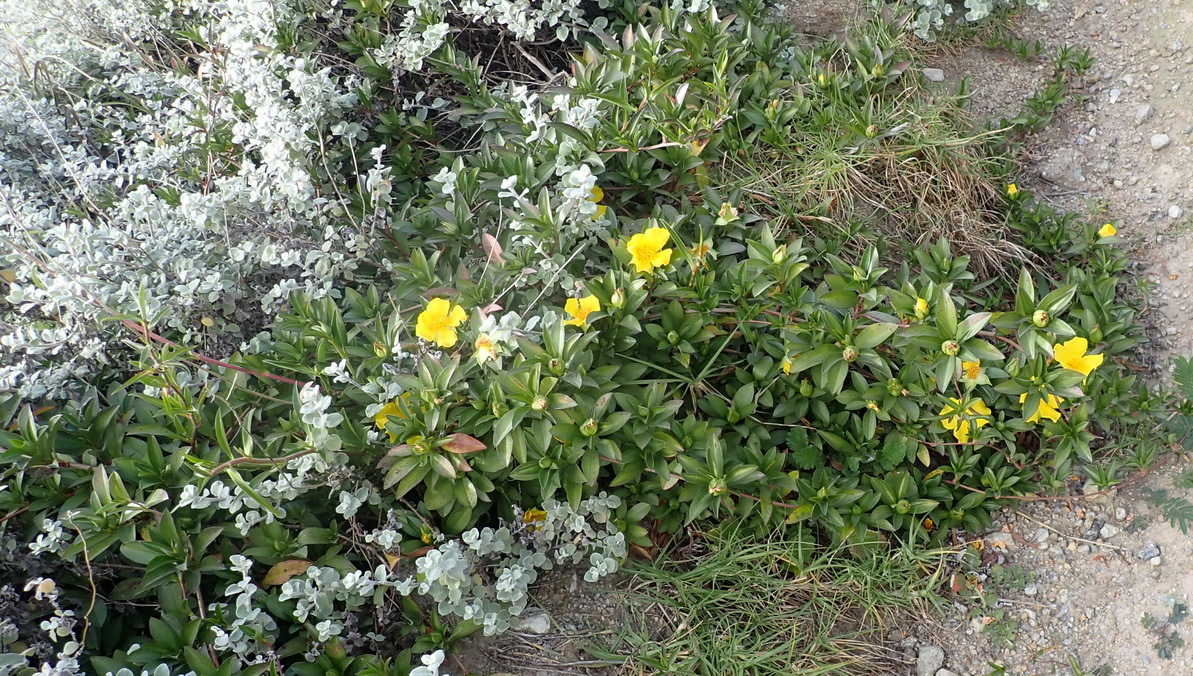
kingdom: Plantae
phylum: Tracheophyta
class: Magnoliopsida
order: Dilleniales
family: Dilleniaceae
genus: Hibbertia
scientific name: Hibbertia scandens
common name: Climbing guinea-flower
